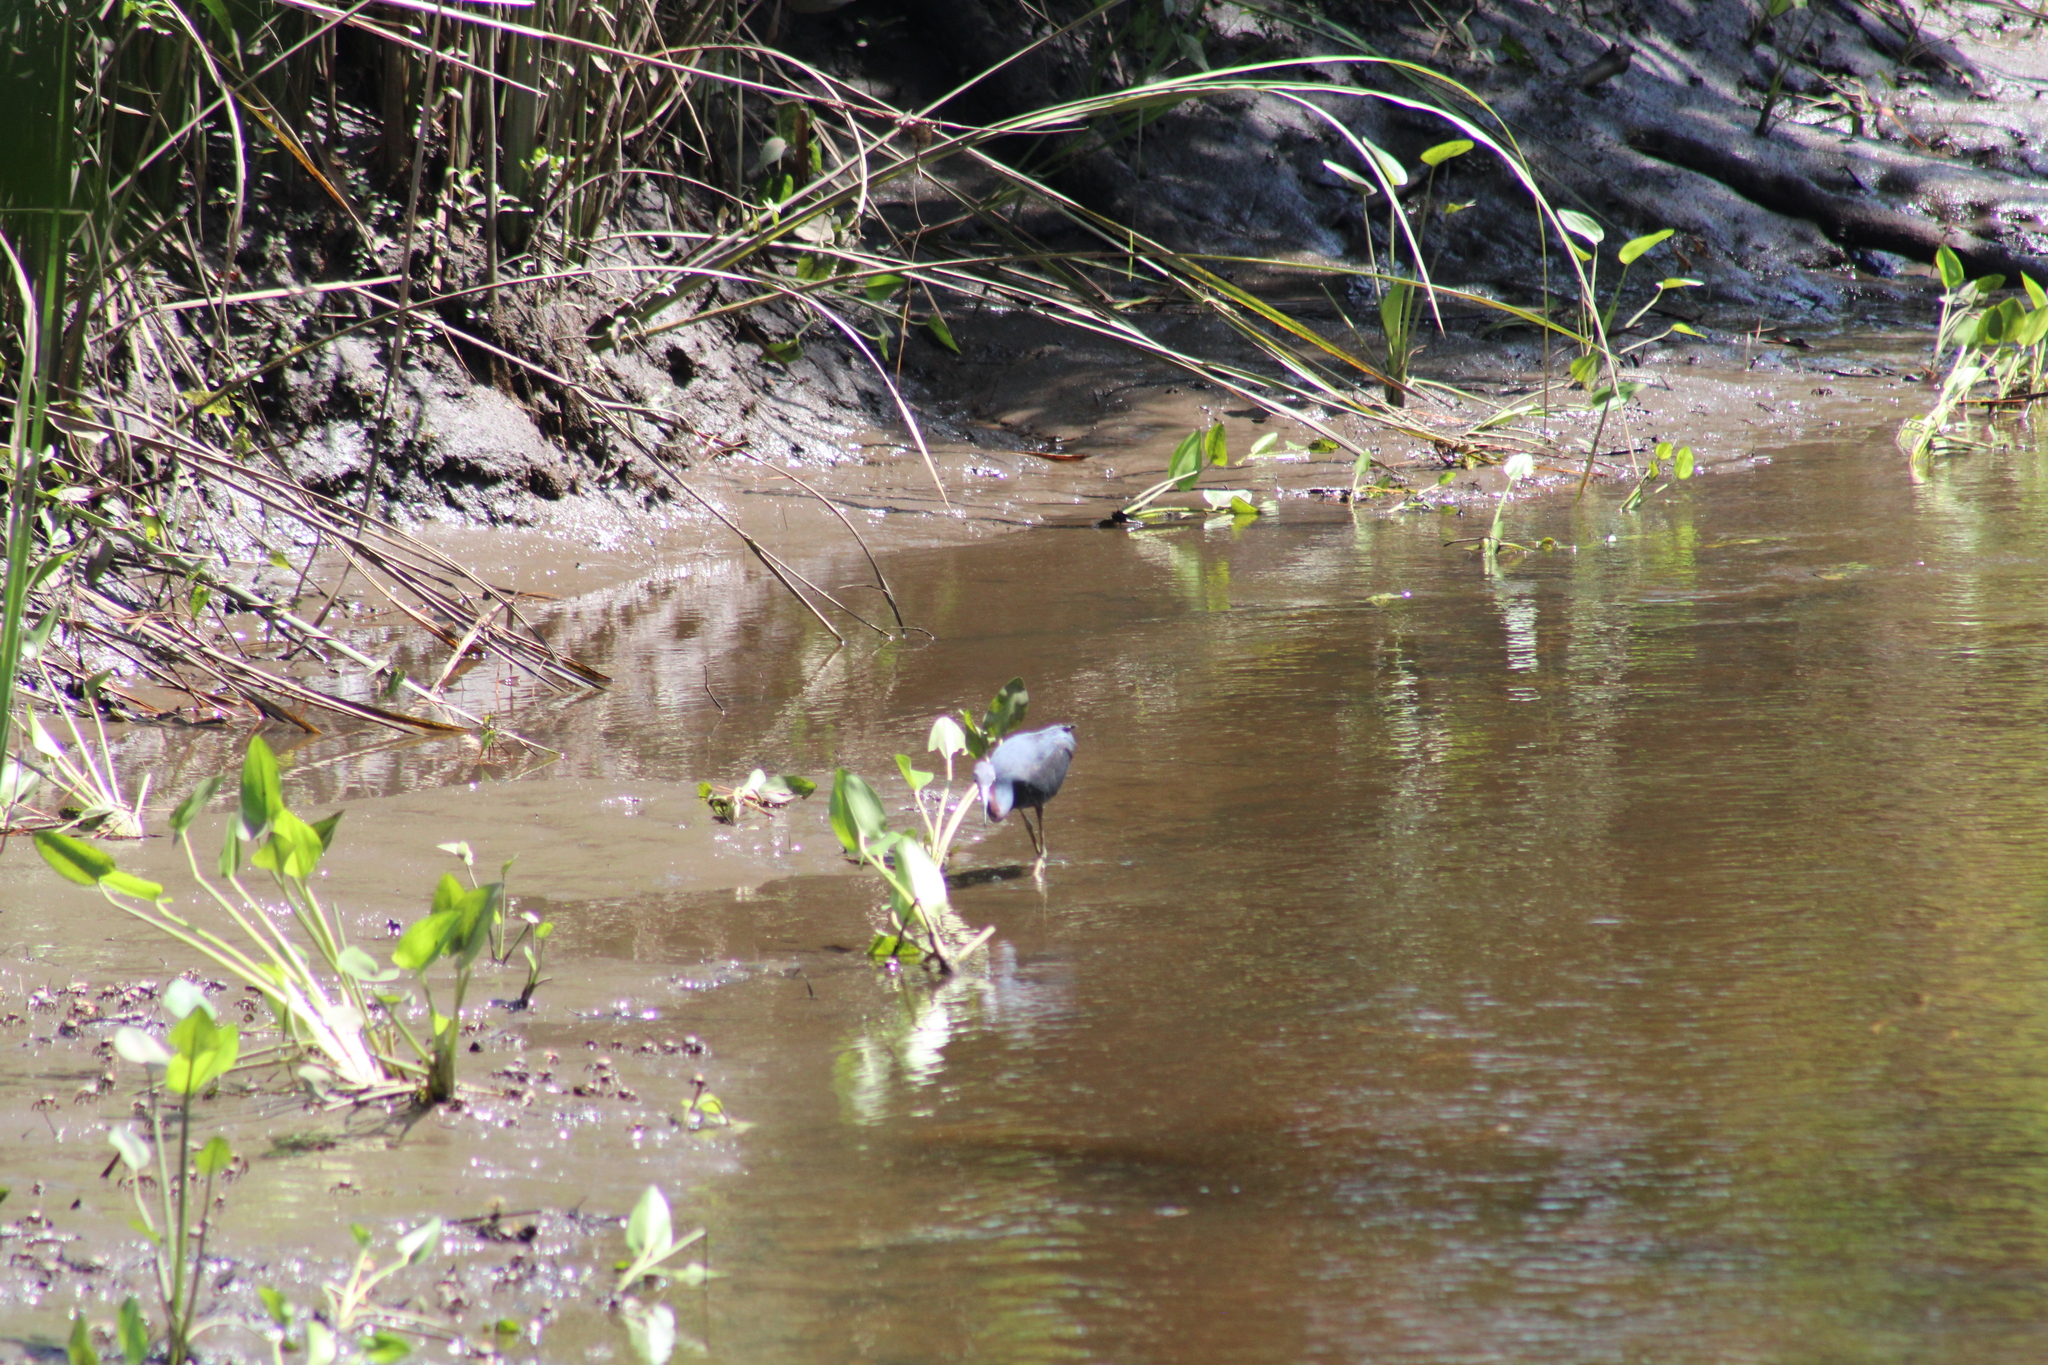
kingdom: Animalia
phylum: Chordata
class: Aves
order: Pelecaniformes
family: Ardeidae
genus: Egretta
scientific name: Egretta caerulea
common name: Little blue heron
